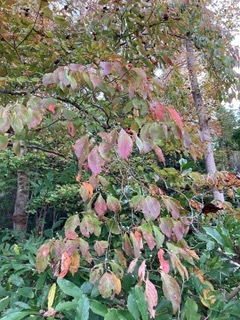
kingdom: Plantae
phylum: Tracheophyta
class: Magnoliopsida
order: Cornales
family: Cornaceae
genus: Cornus
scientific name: Cornus florida
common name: Flowering dogwood
